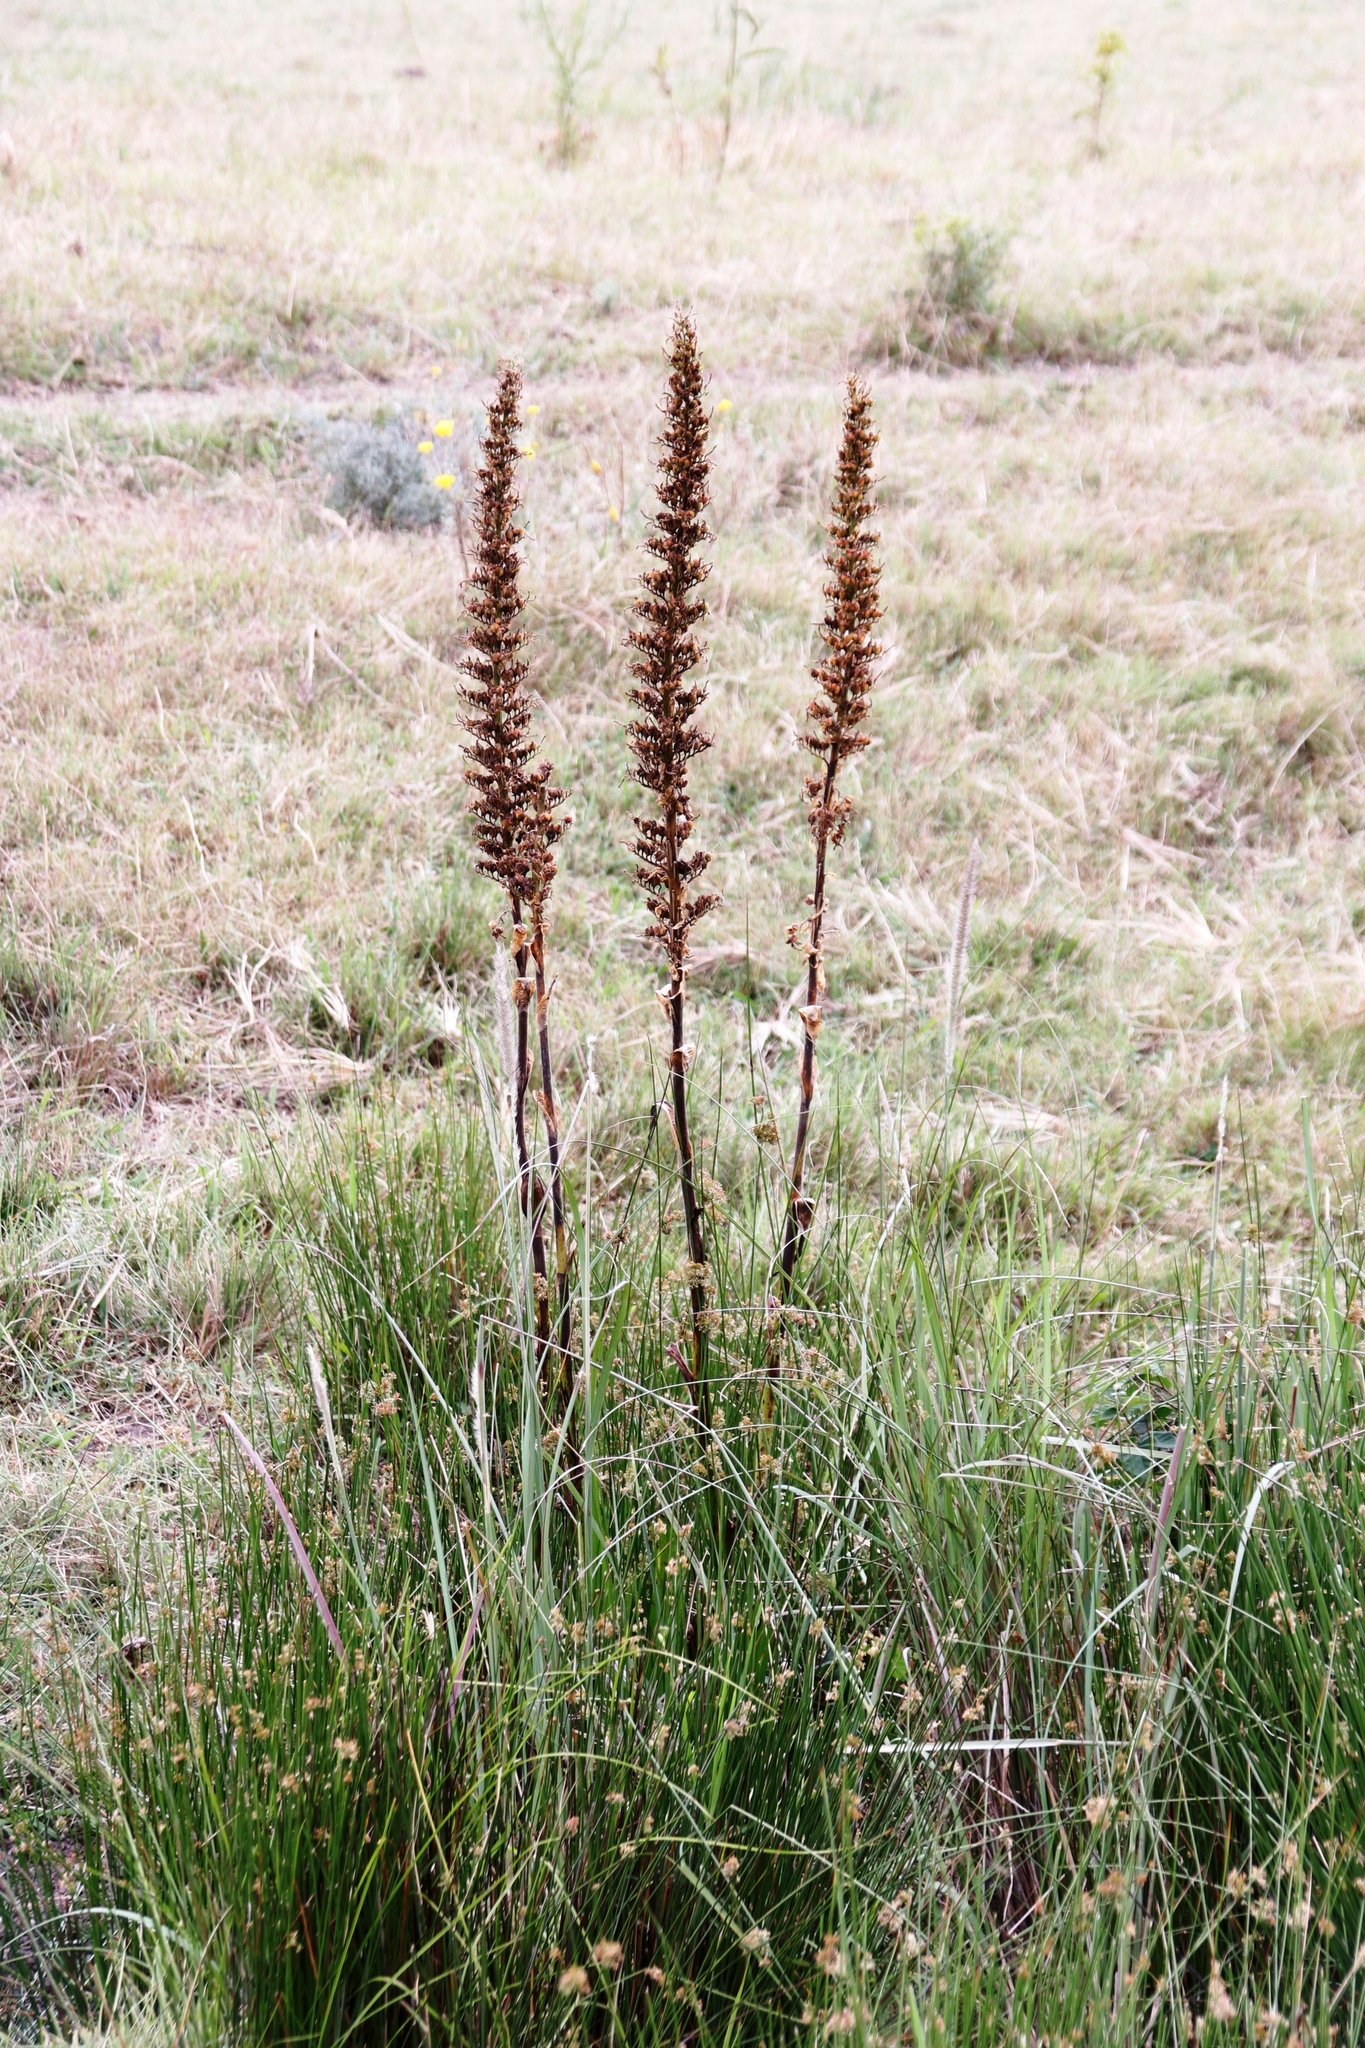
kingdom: Plantae
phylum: Tracheophyta
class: Liliopsida
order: Commelinales
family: Haemodoraceae
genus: Wachendorfia
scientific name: Wachendorfia thyrsiflora
